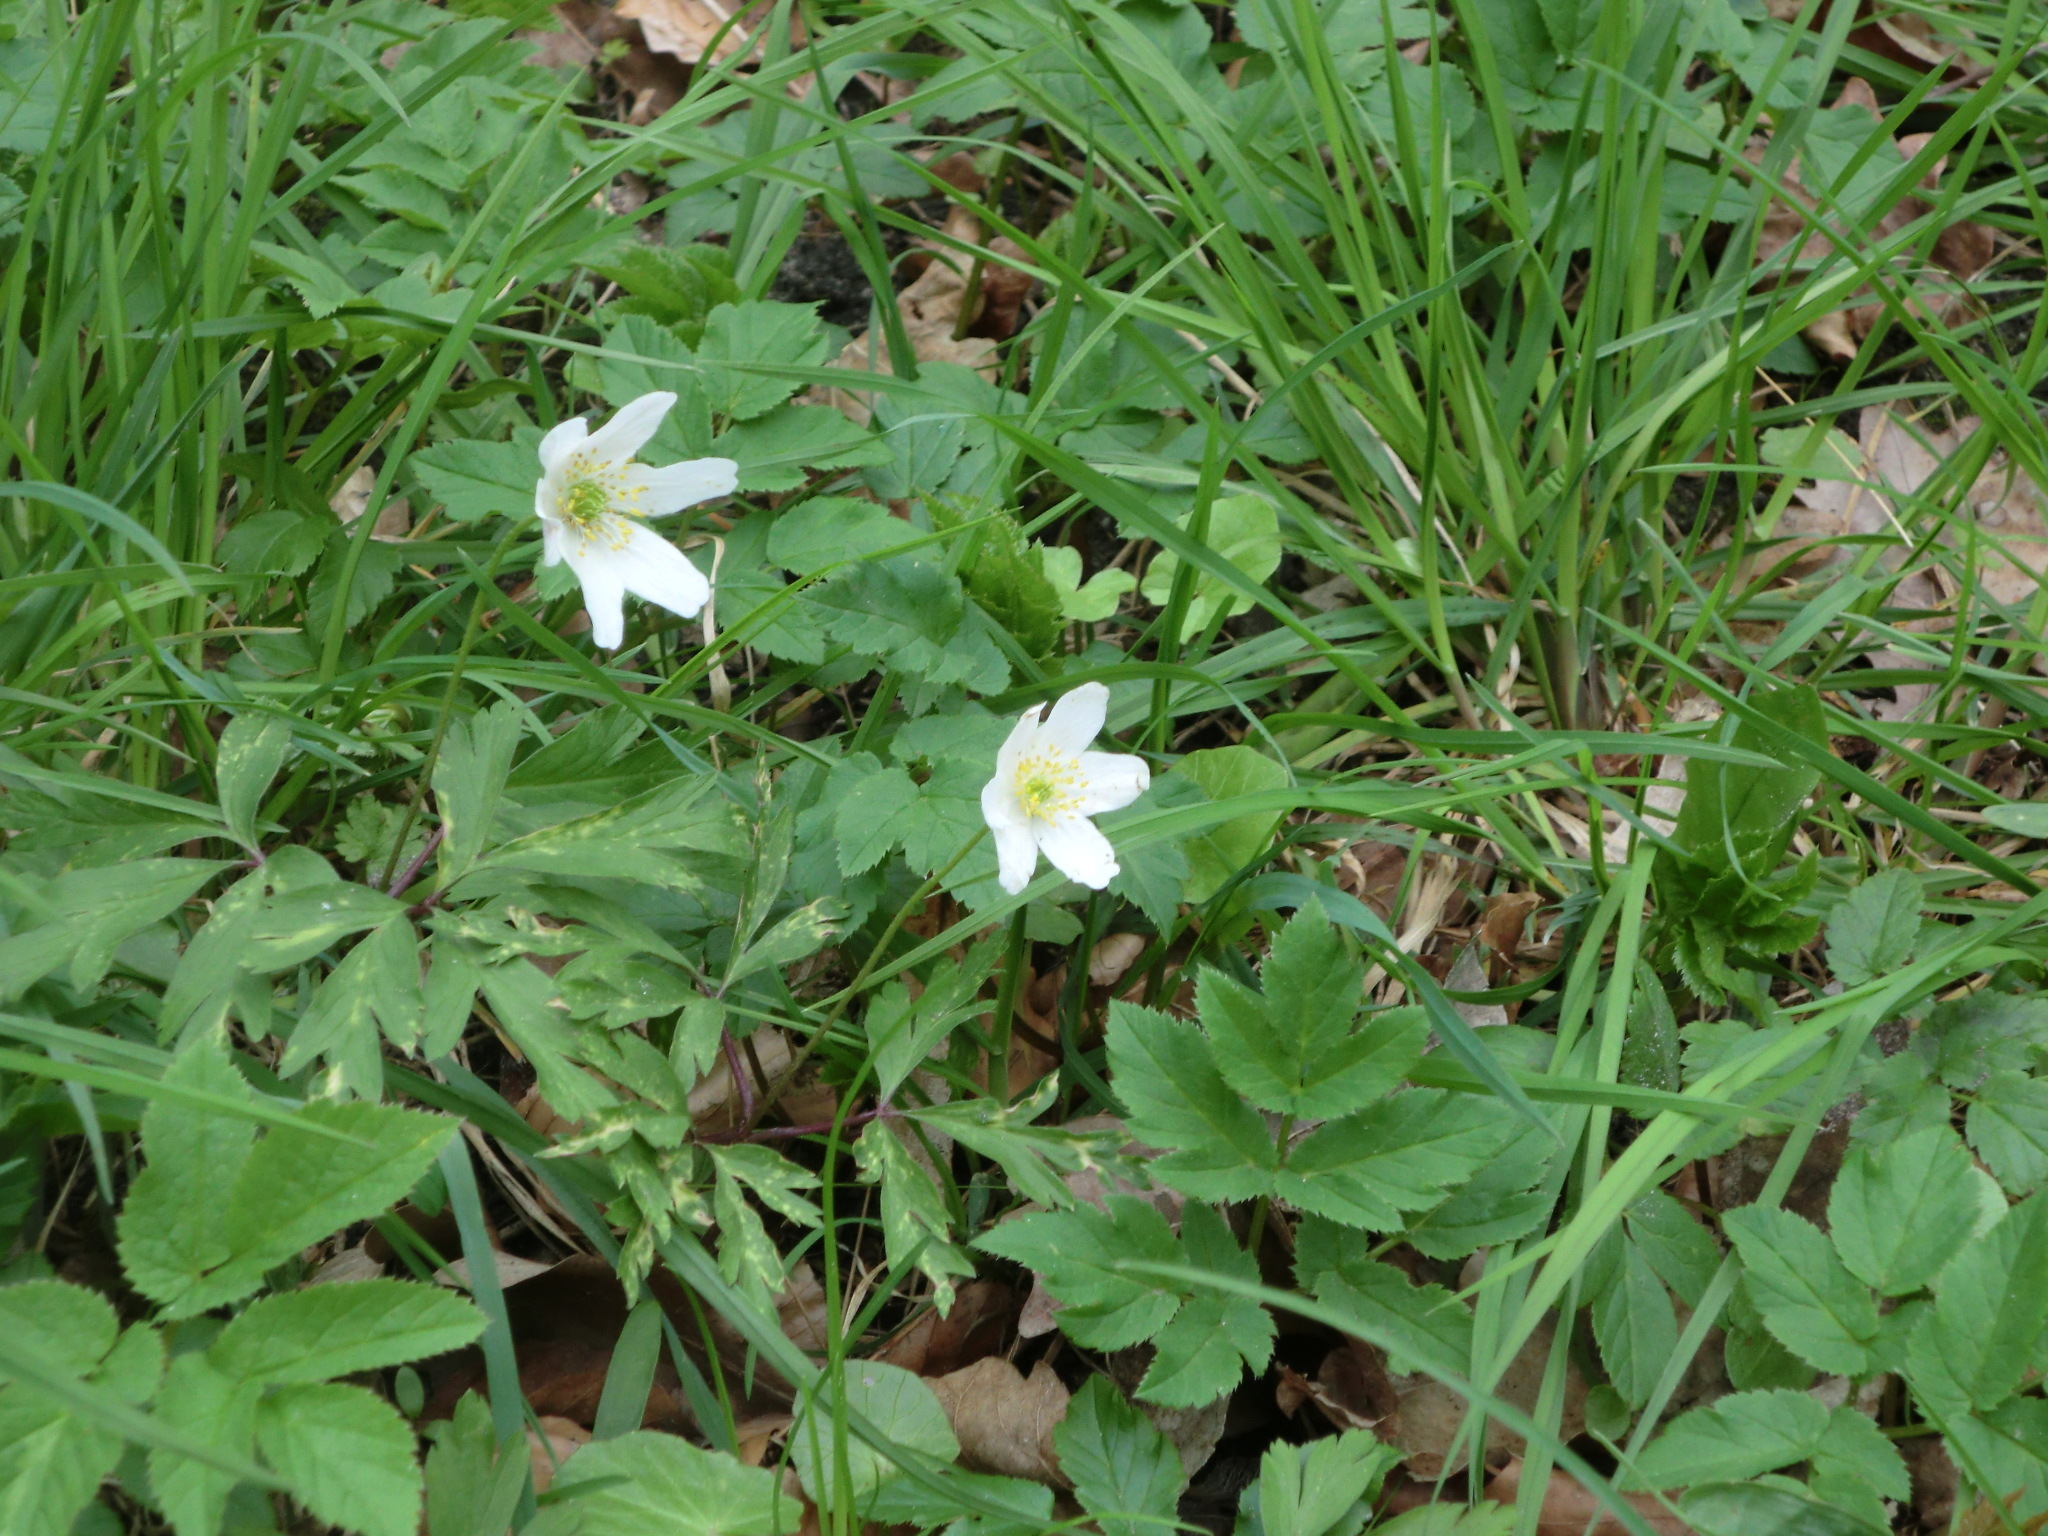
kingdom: Plantae
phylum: Tracheophyta
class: Magnoliopsida
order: Ranunculales
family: Ranunculaceae
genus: Anemone
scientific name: Anemone nemorosa
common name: Wood anemone
